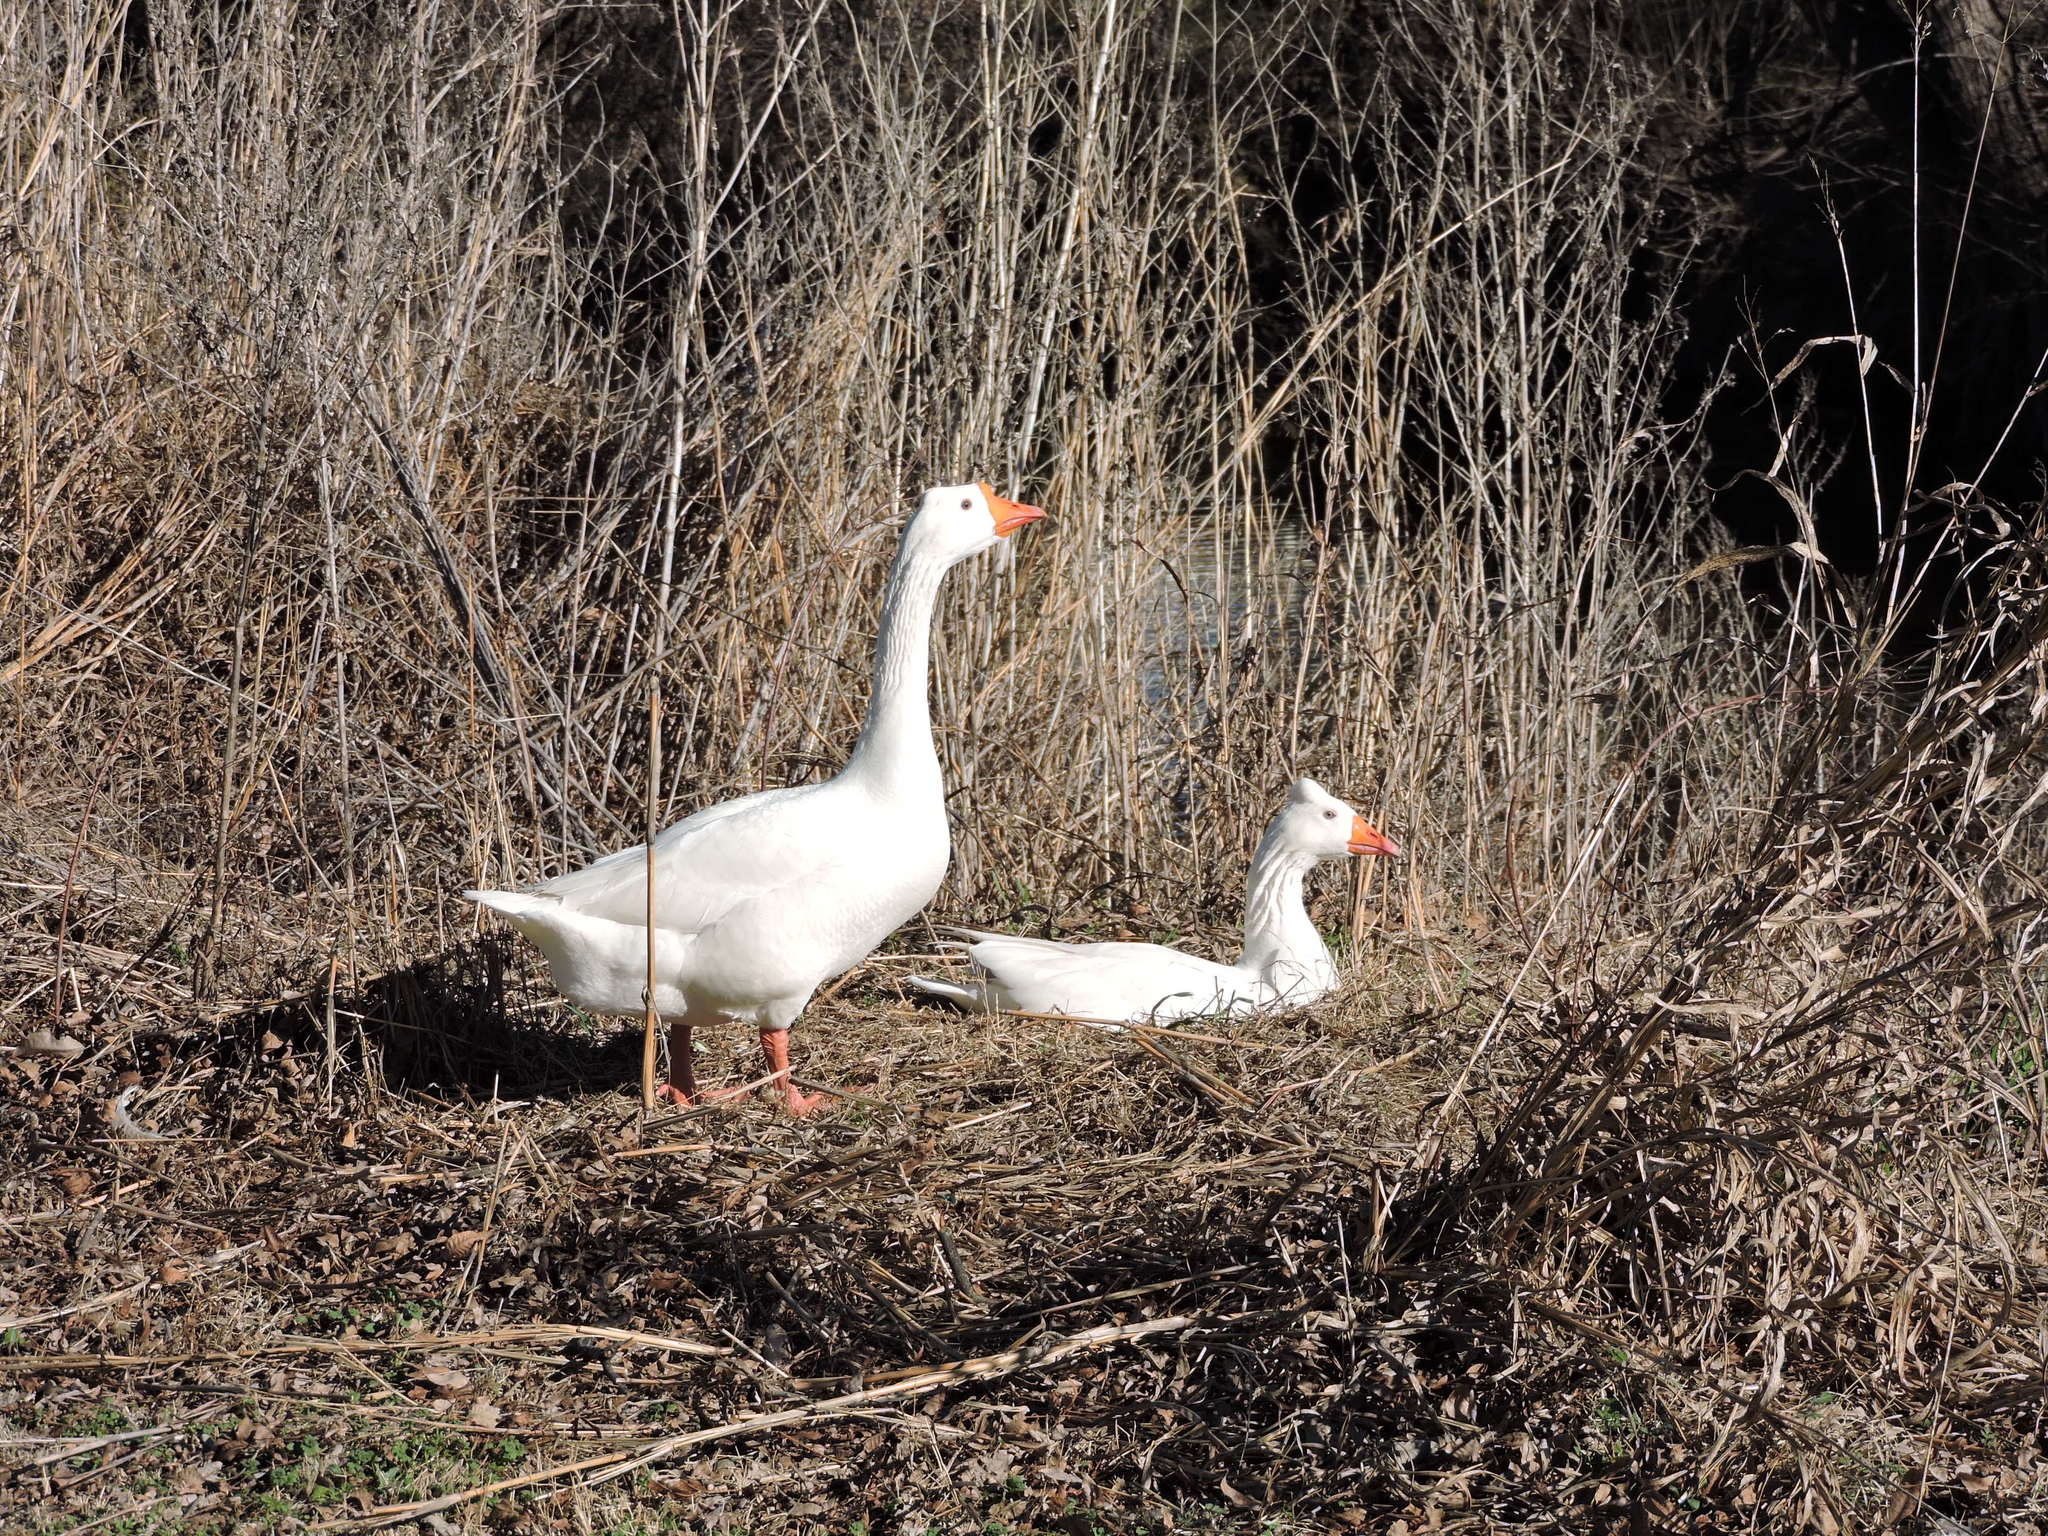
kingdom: Animalia
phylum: Chordata
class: Aves
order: Anseriformes
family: Anatidae
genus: Anser
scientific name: Anser anser
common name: Greylag goose
